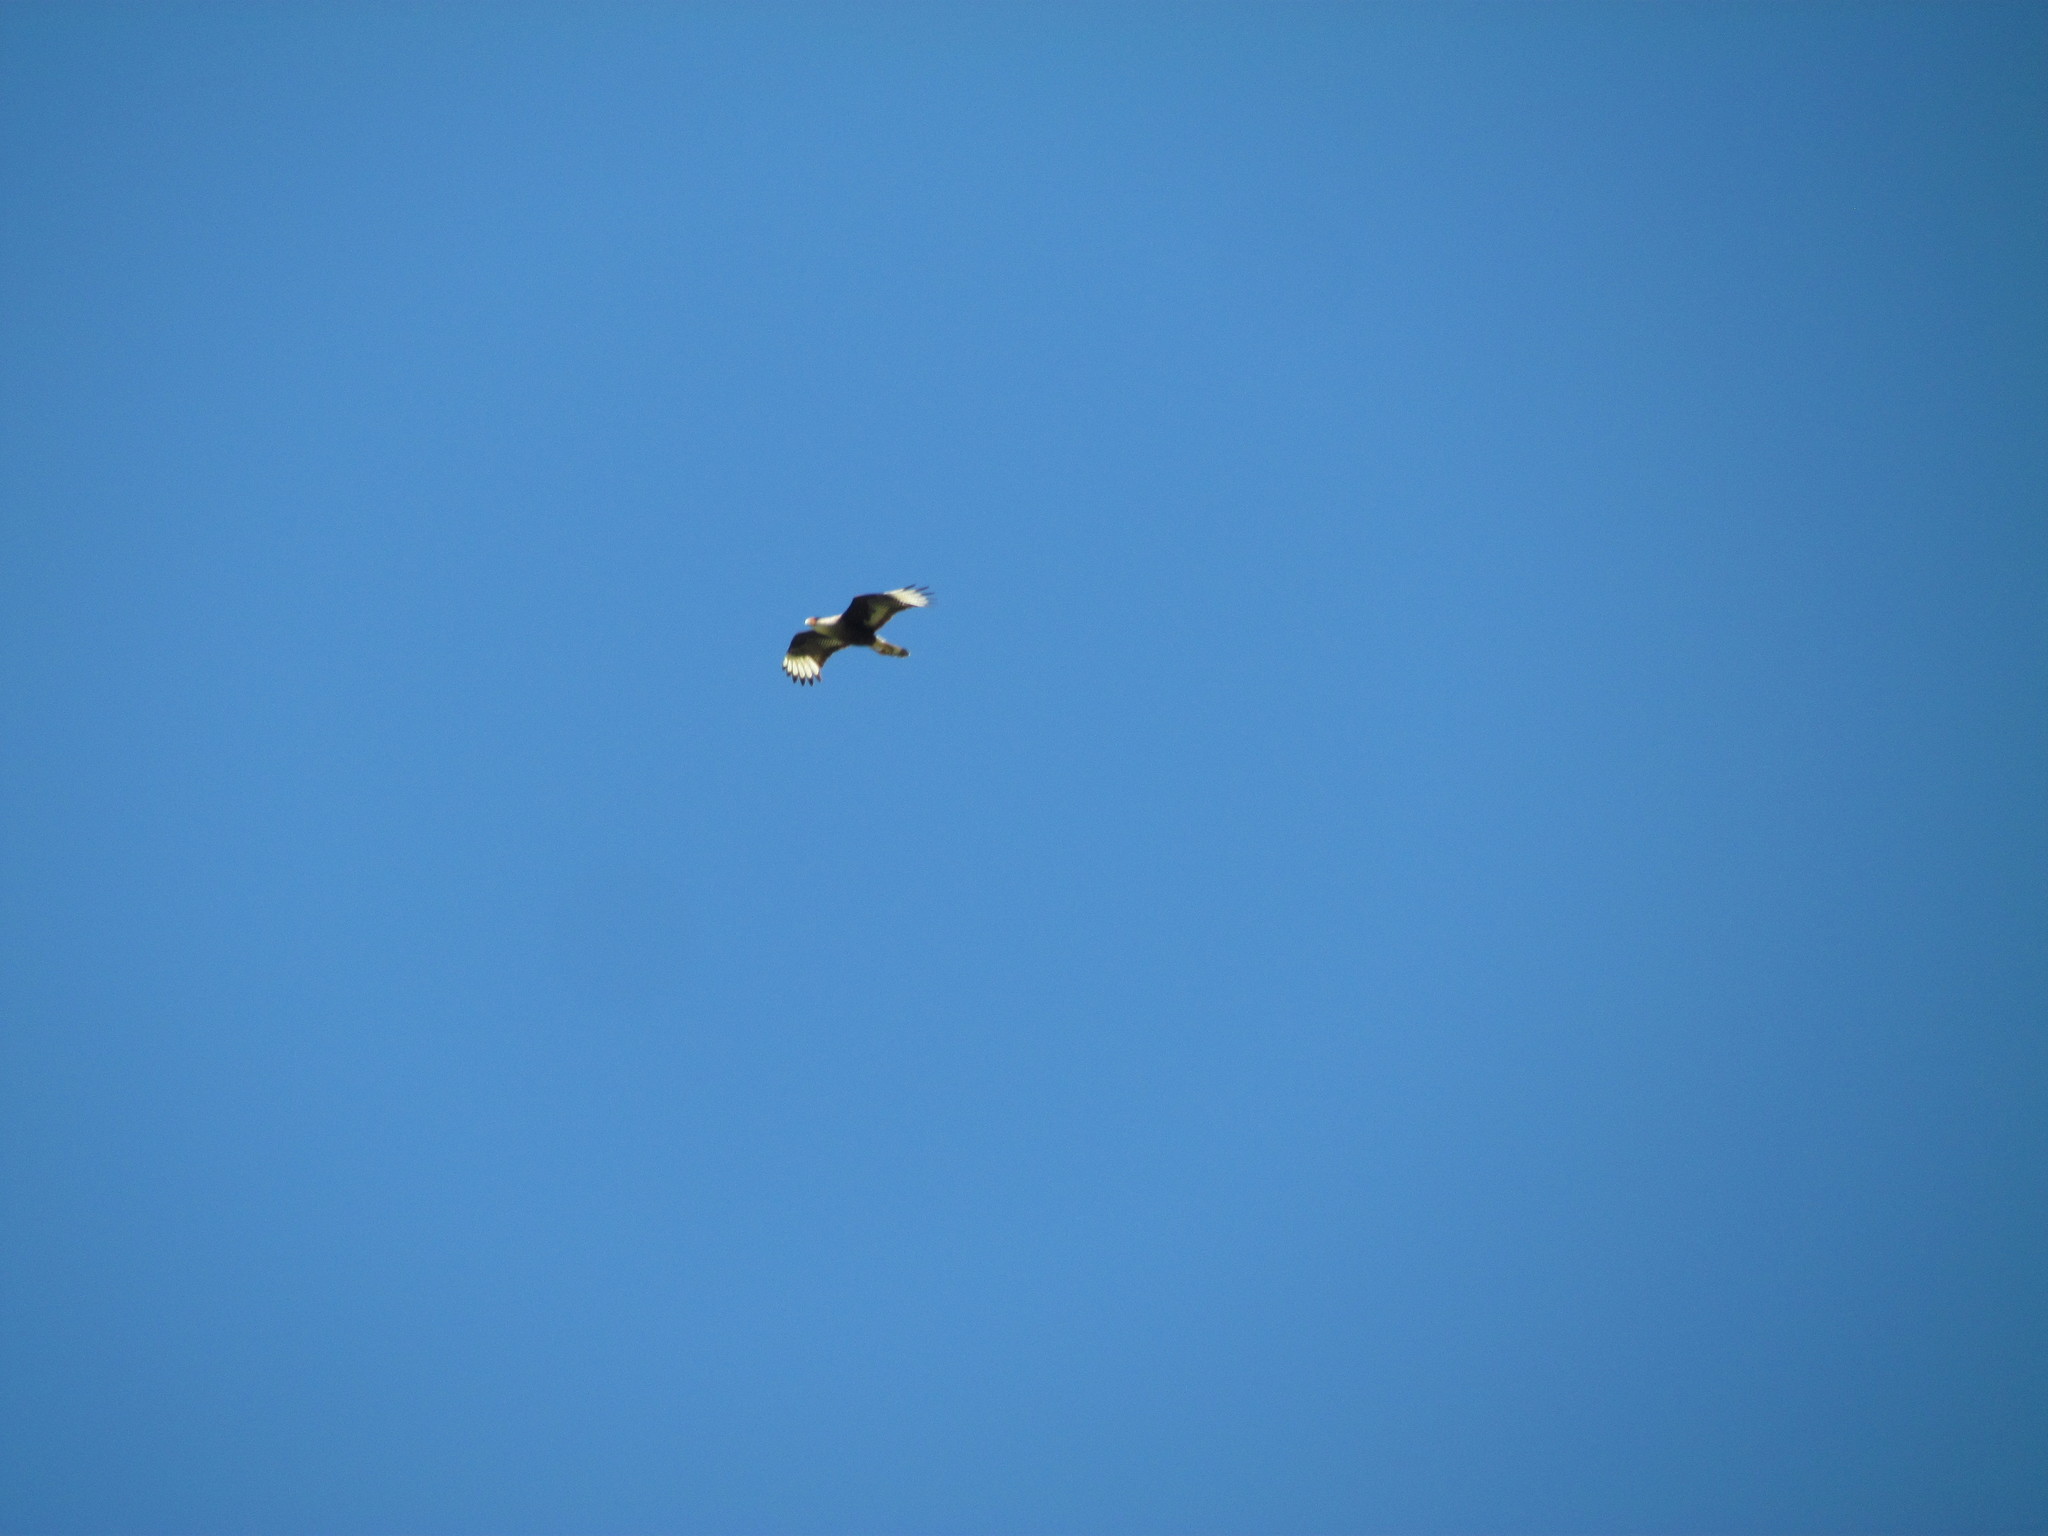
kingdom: Animalia
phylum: Chordata
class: Aves
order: Falconiformes
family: Falconidae
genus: Caracara
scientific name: Caracara plancus
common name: Southern caracara
